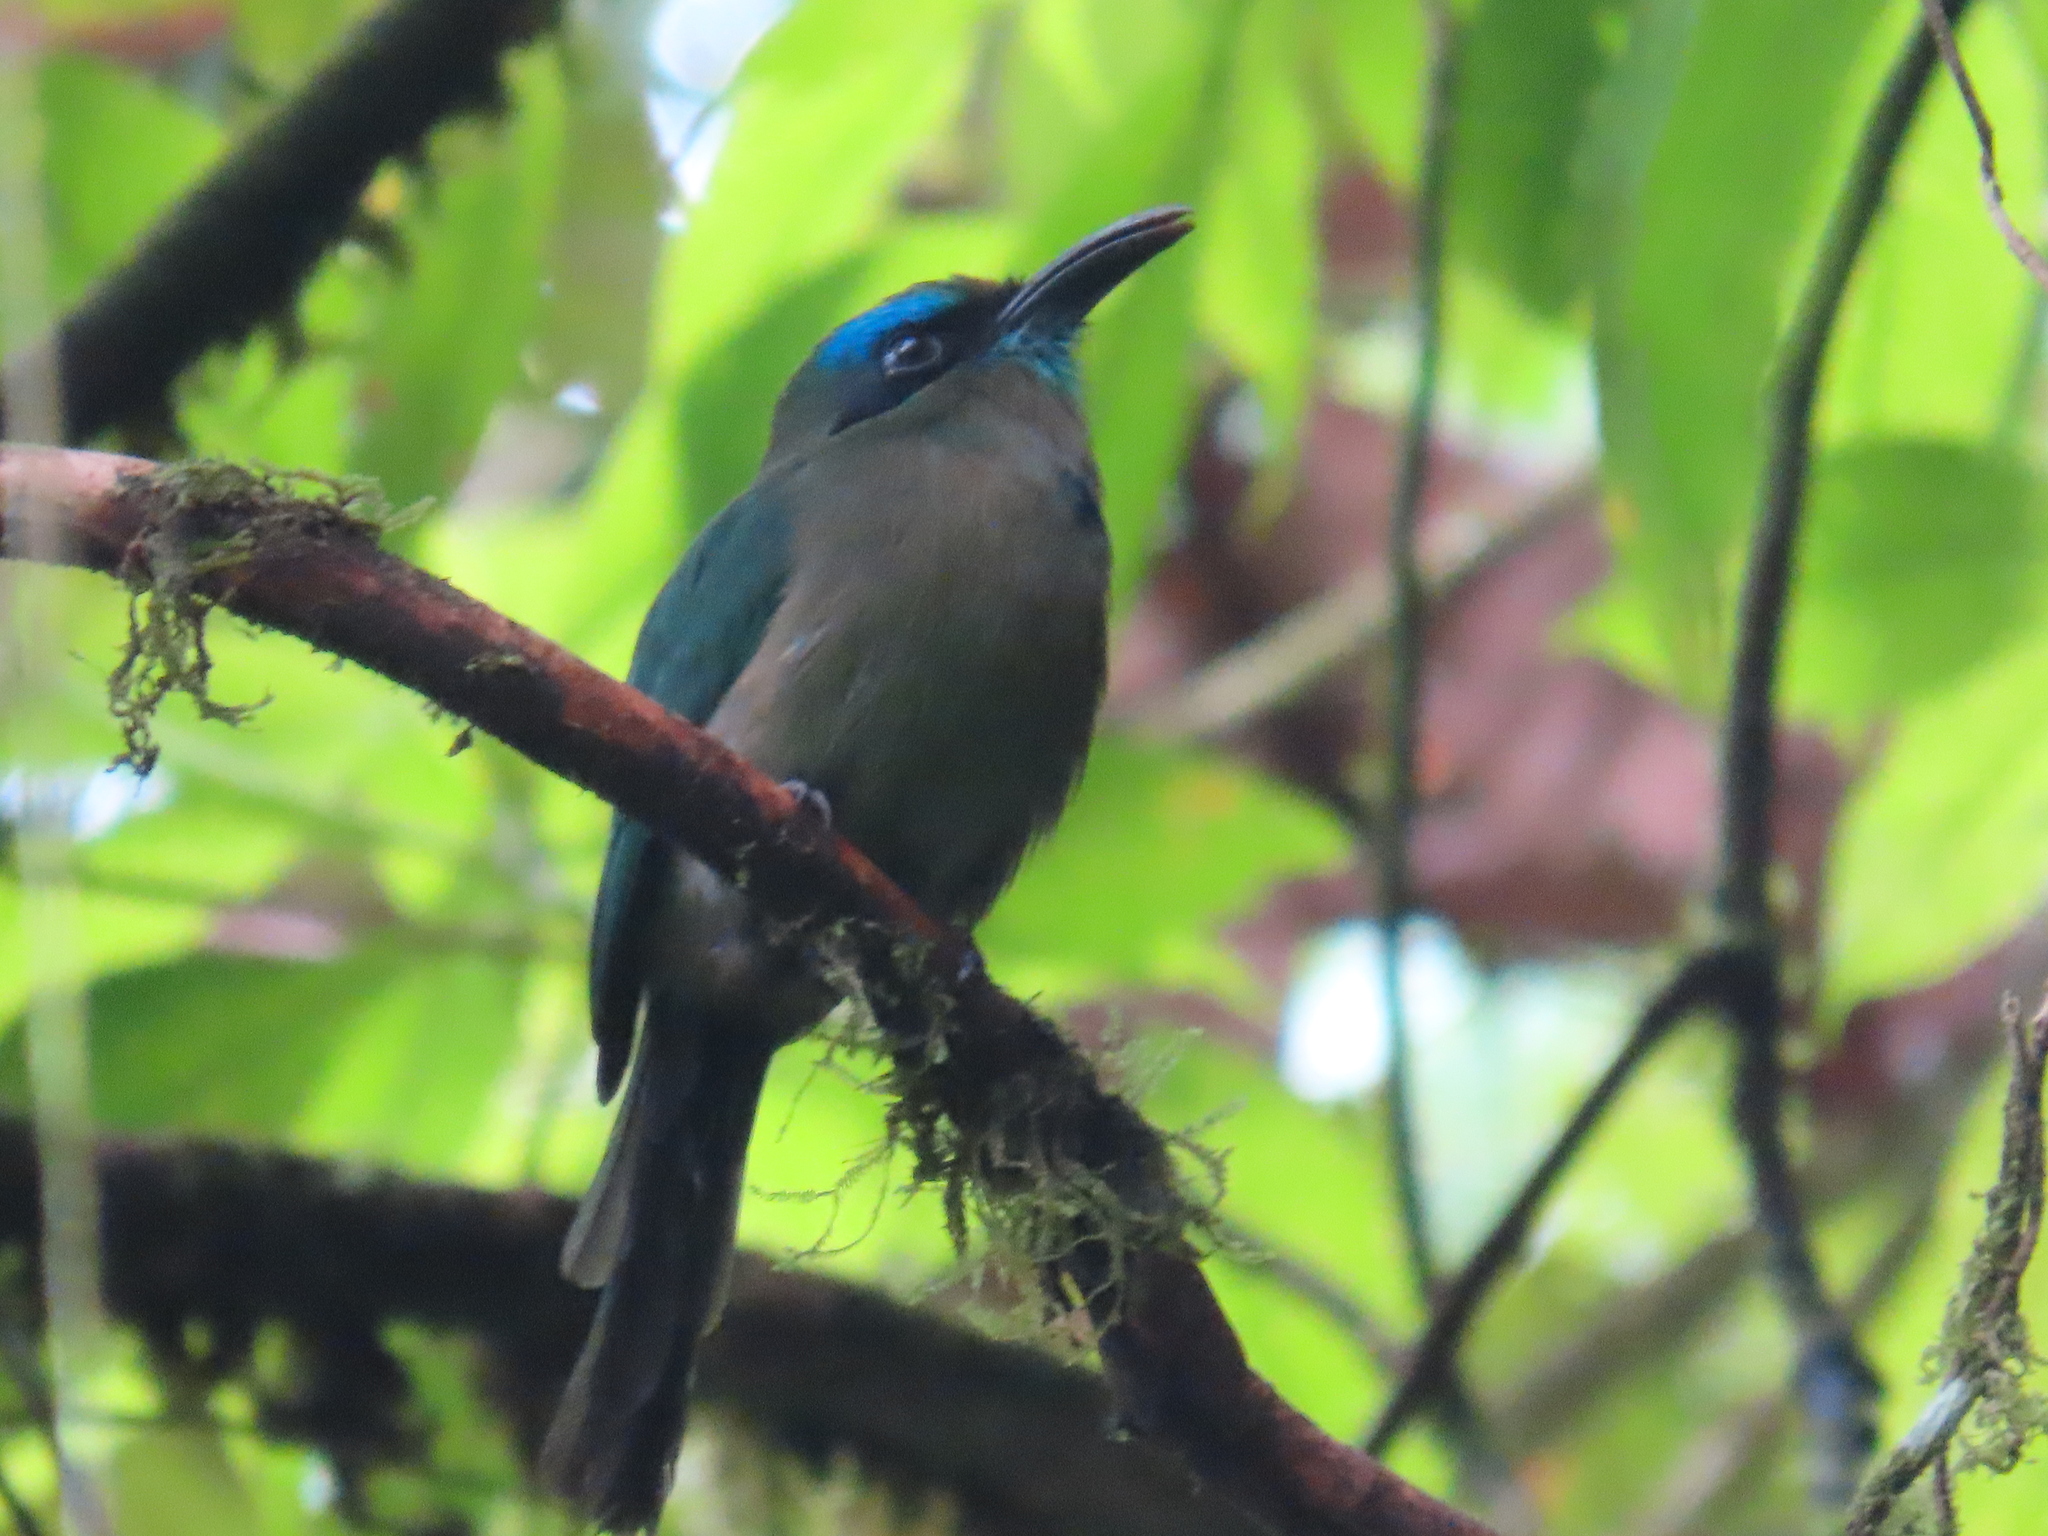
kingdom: Animalia
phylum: Chordata
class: Aves
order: Coraciiformes
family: Momotidae
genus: Electron
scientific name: Electron carinatum
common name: Keel-billed motmot
